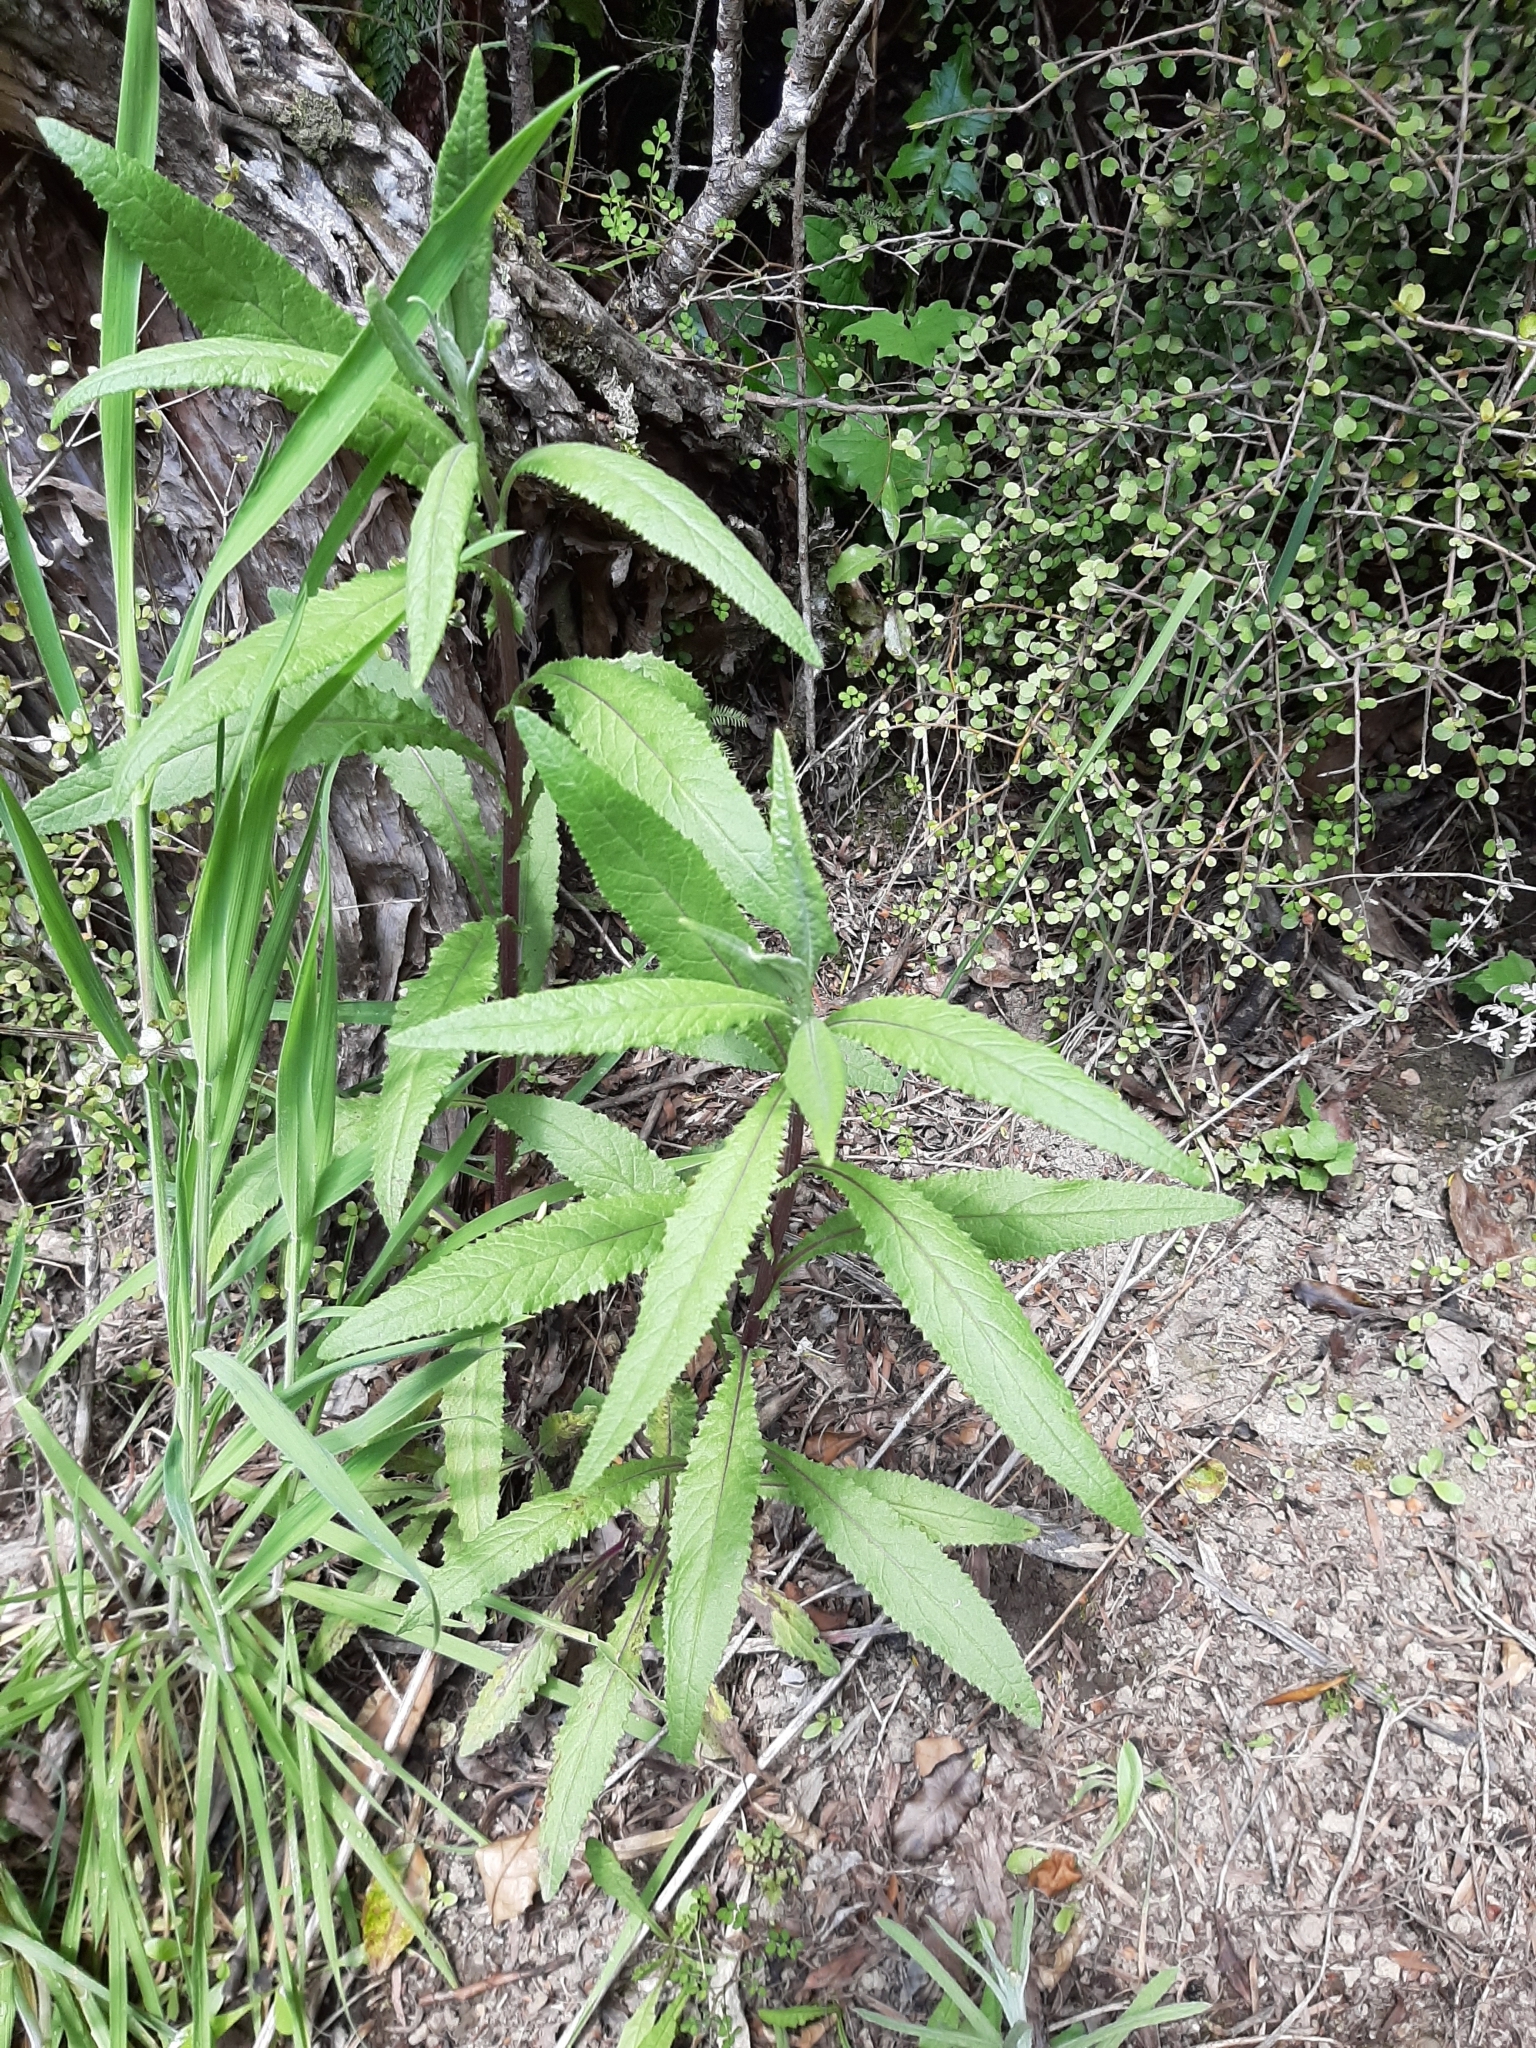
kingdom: Plantae
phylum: Tracheophyta
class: Magnoliopsida
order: Asterales
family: Asteraceae
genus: Senecio
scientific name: Senecio minimus
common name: Toothed fireweed
